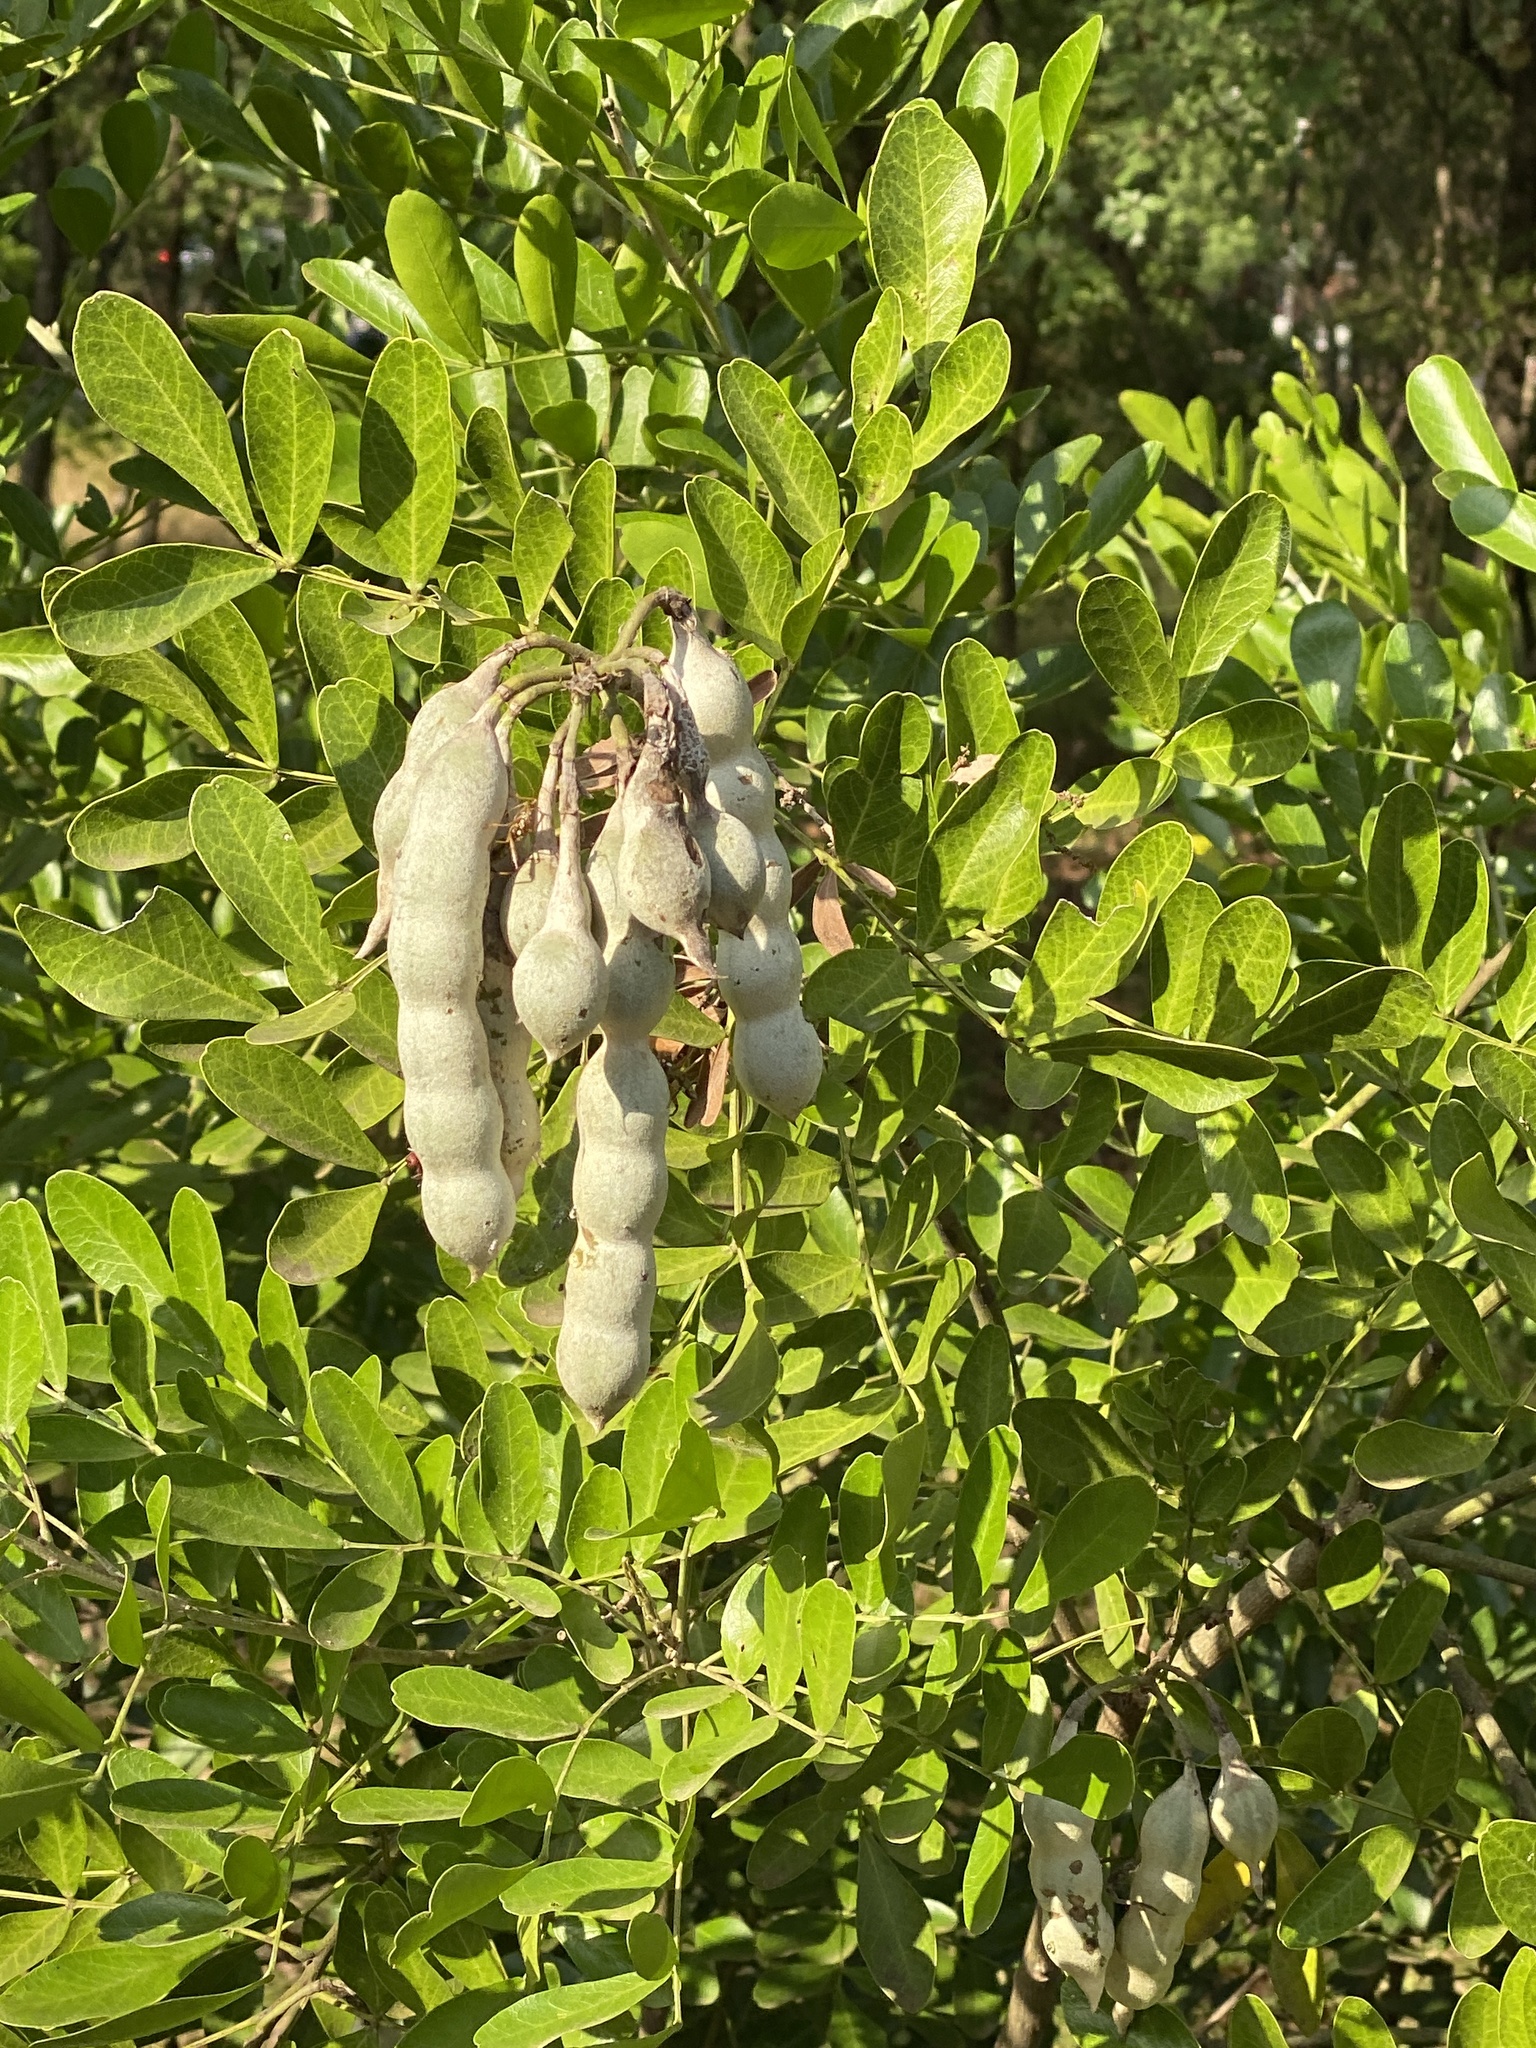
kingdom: Plantae
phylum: Tracheophyta
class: Magnoliopsida
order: Fabales
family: Fabaceae
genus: Dermatophyllum
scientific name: Dermatophyllum secundiflorum
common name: Texas-mountain-laurel
